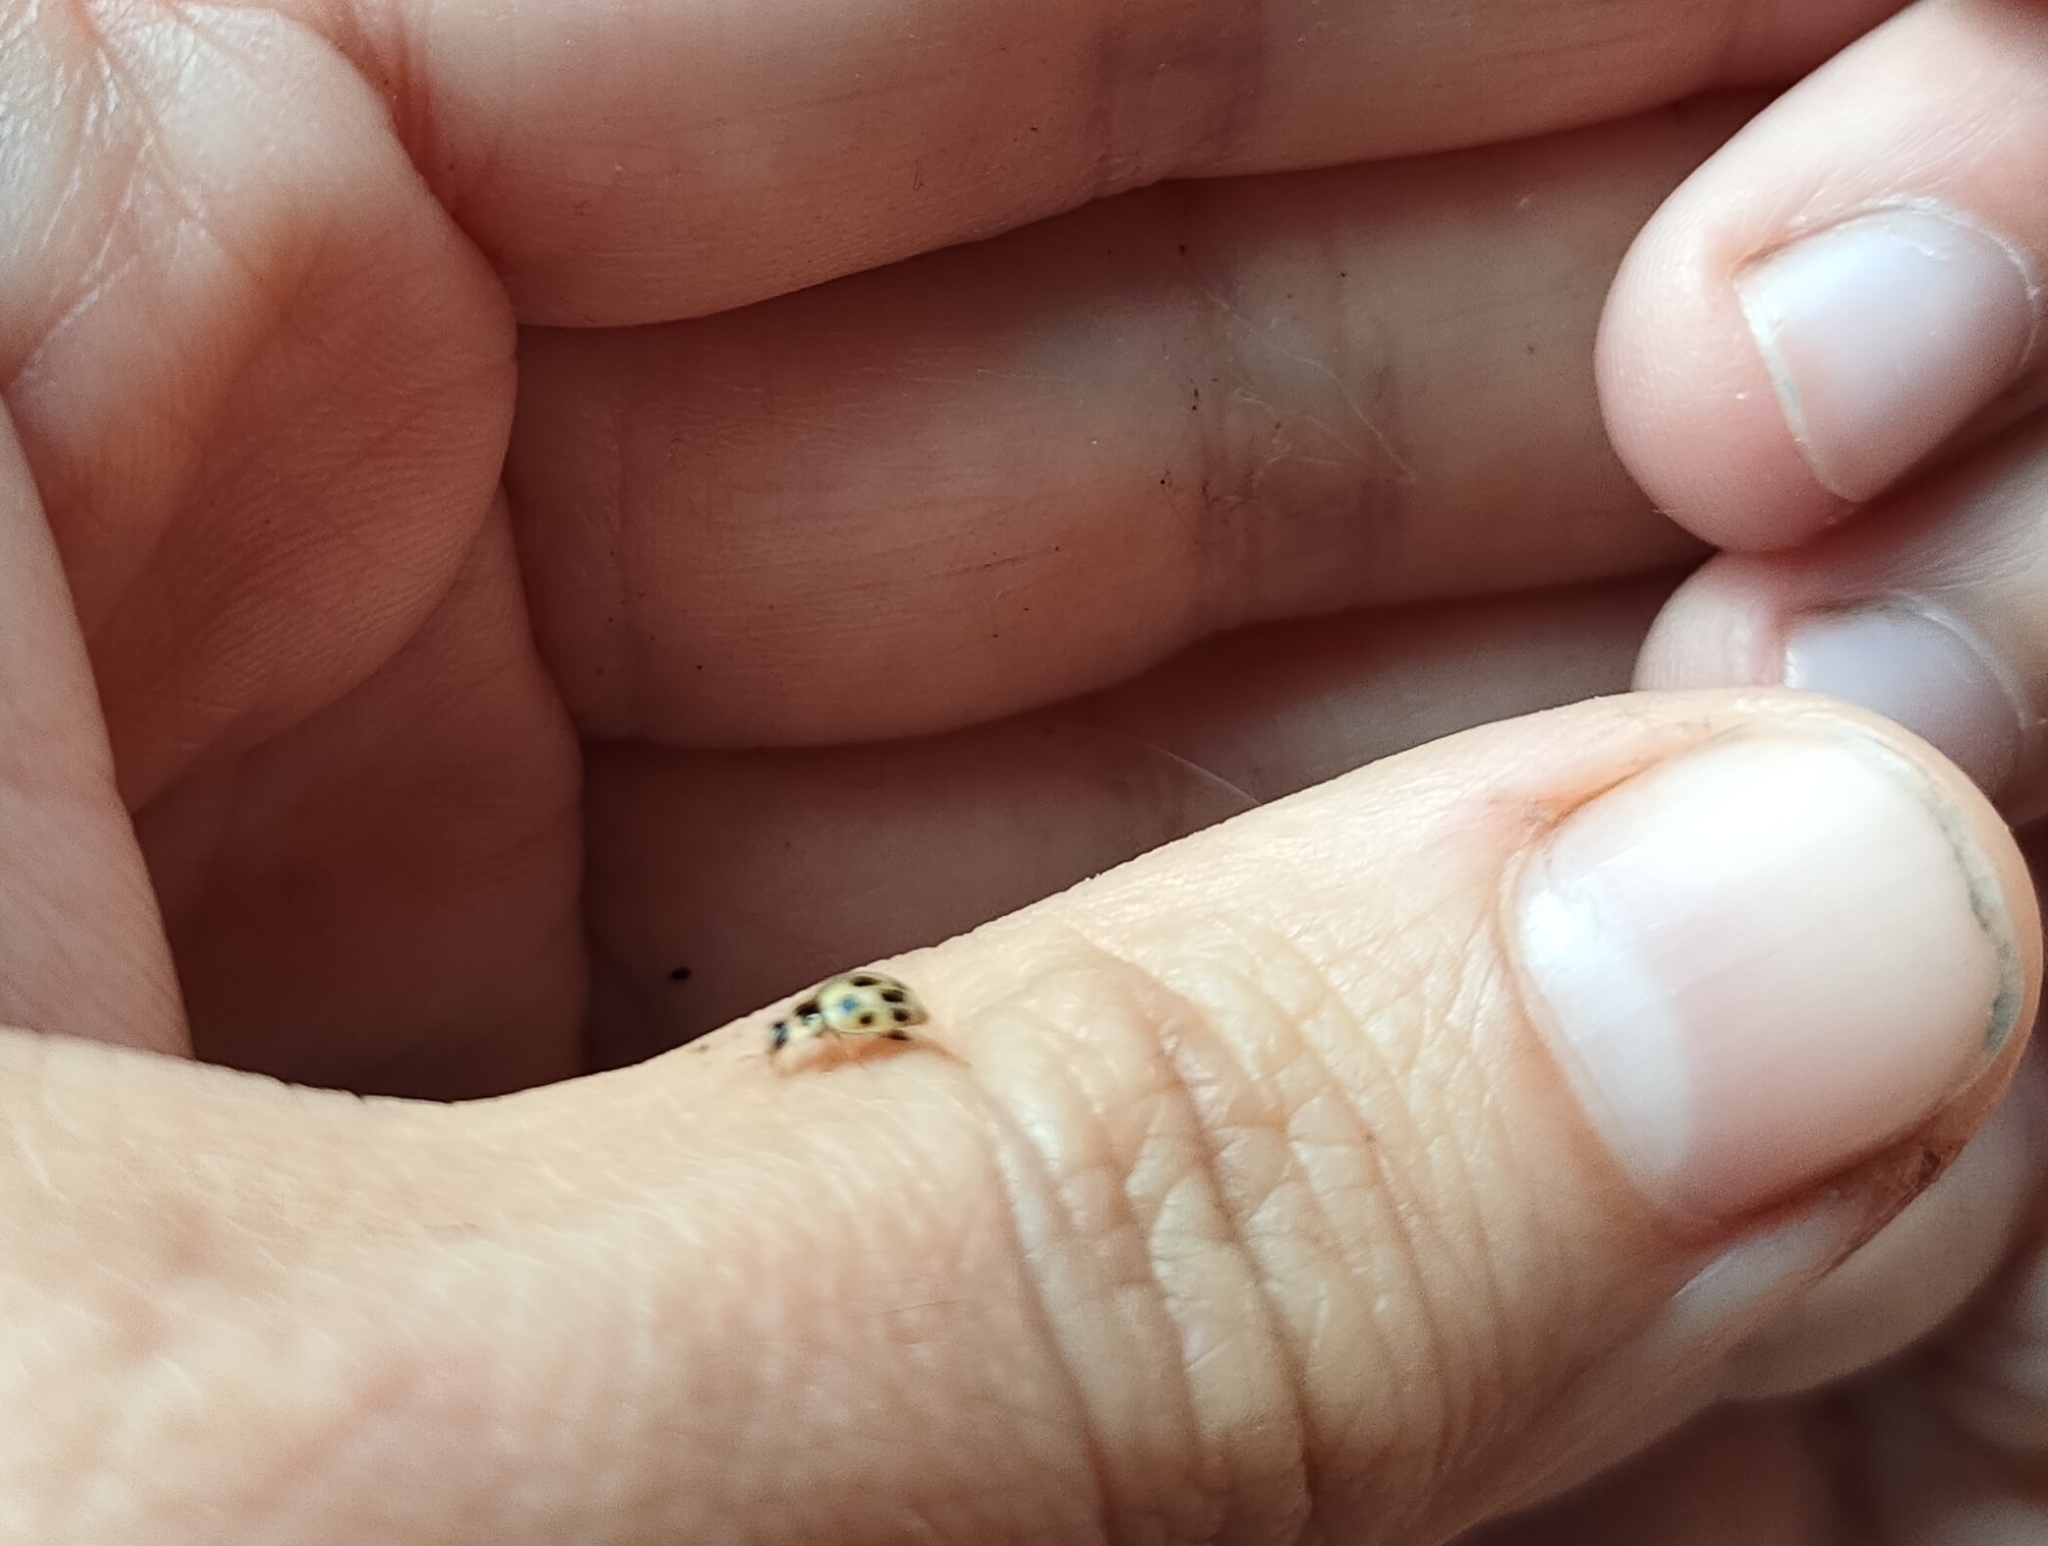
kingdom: Animalia
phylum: Arthropoda
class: Insecta
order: Coleoptera
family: Coccinellidae
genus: Propylaea
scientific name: Propylaea quatuordecimpunctata
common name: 14-spotted ladybird beetle
